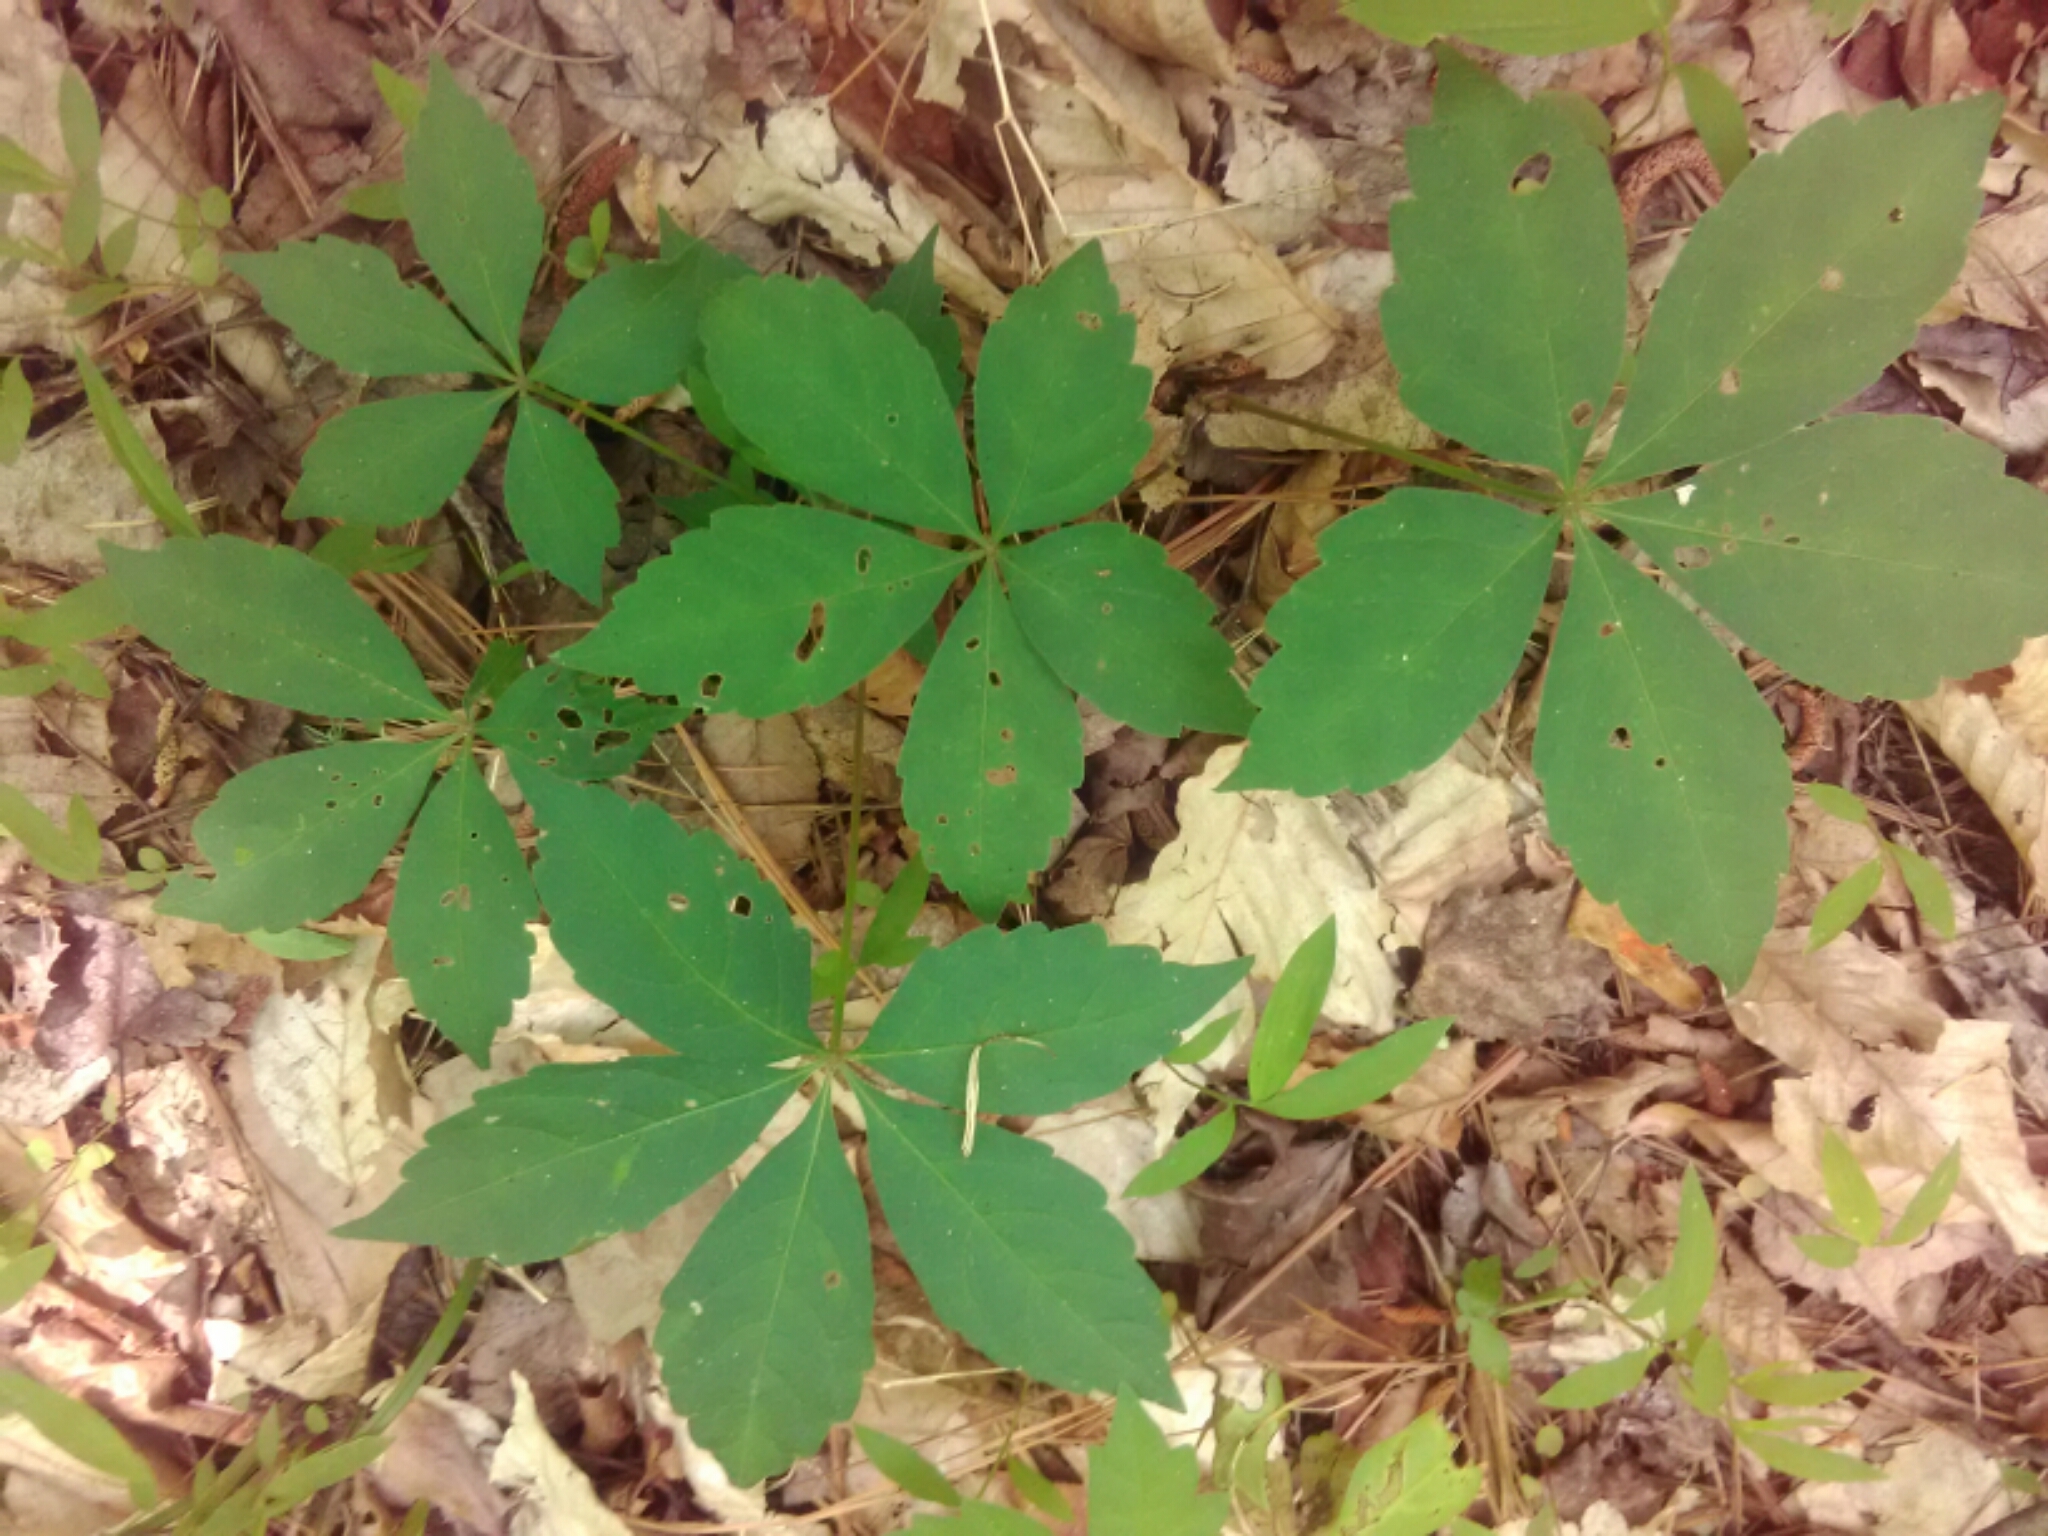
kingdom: Plantae
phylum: Tracheophyta
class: Magnoliopsida
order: Vitales
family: Vitaceae
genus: Parthenocissus
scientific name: Parthenocissus quinquefolia
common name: Virginia-creeper
